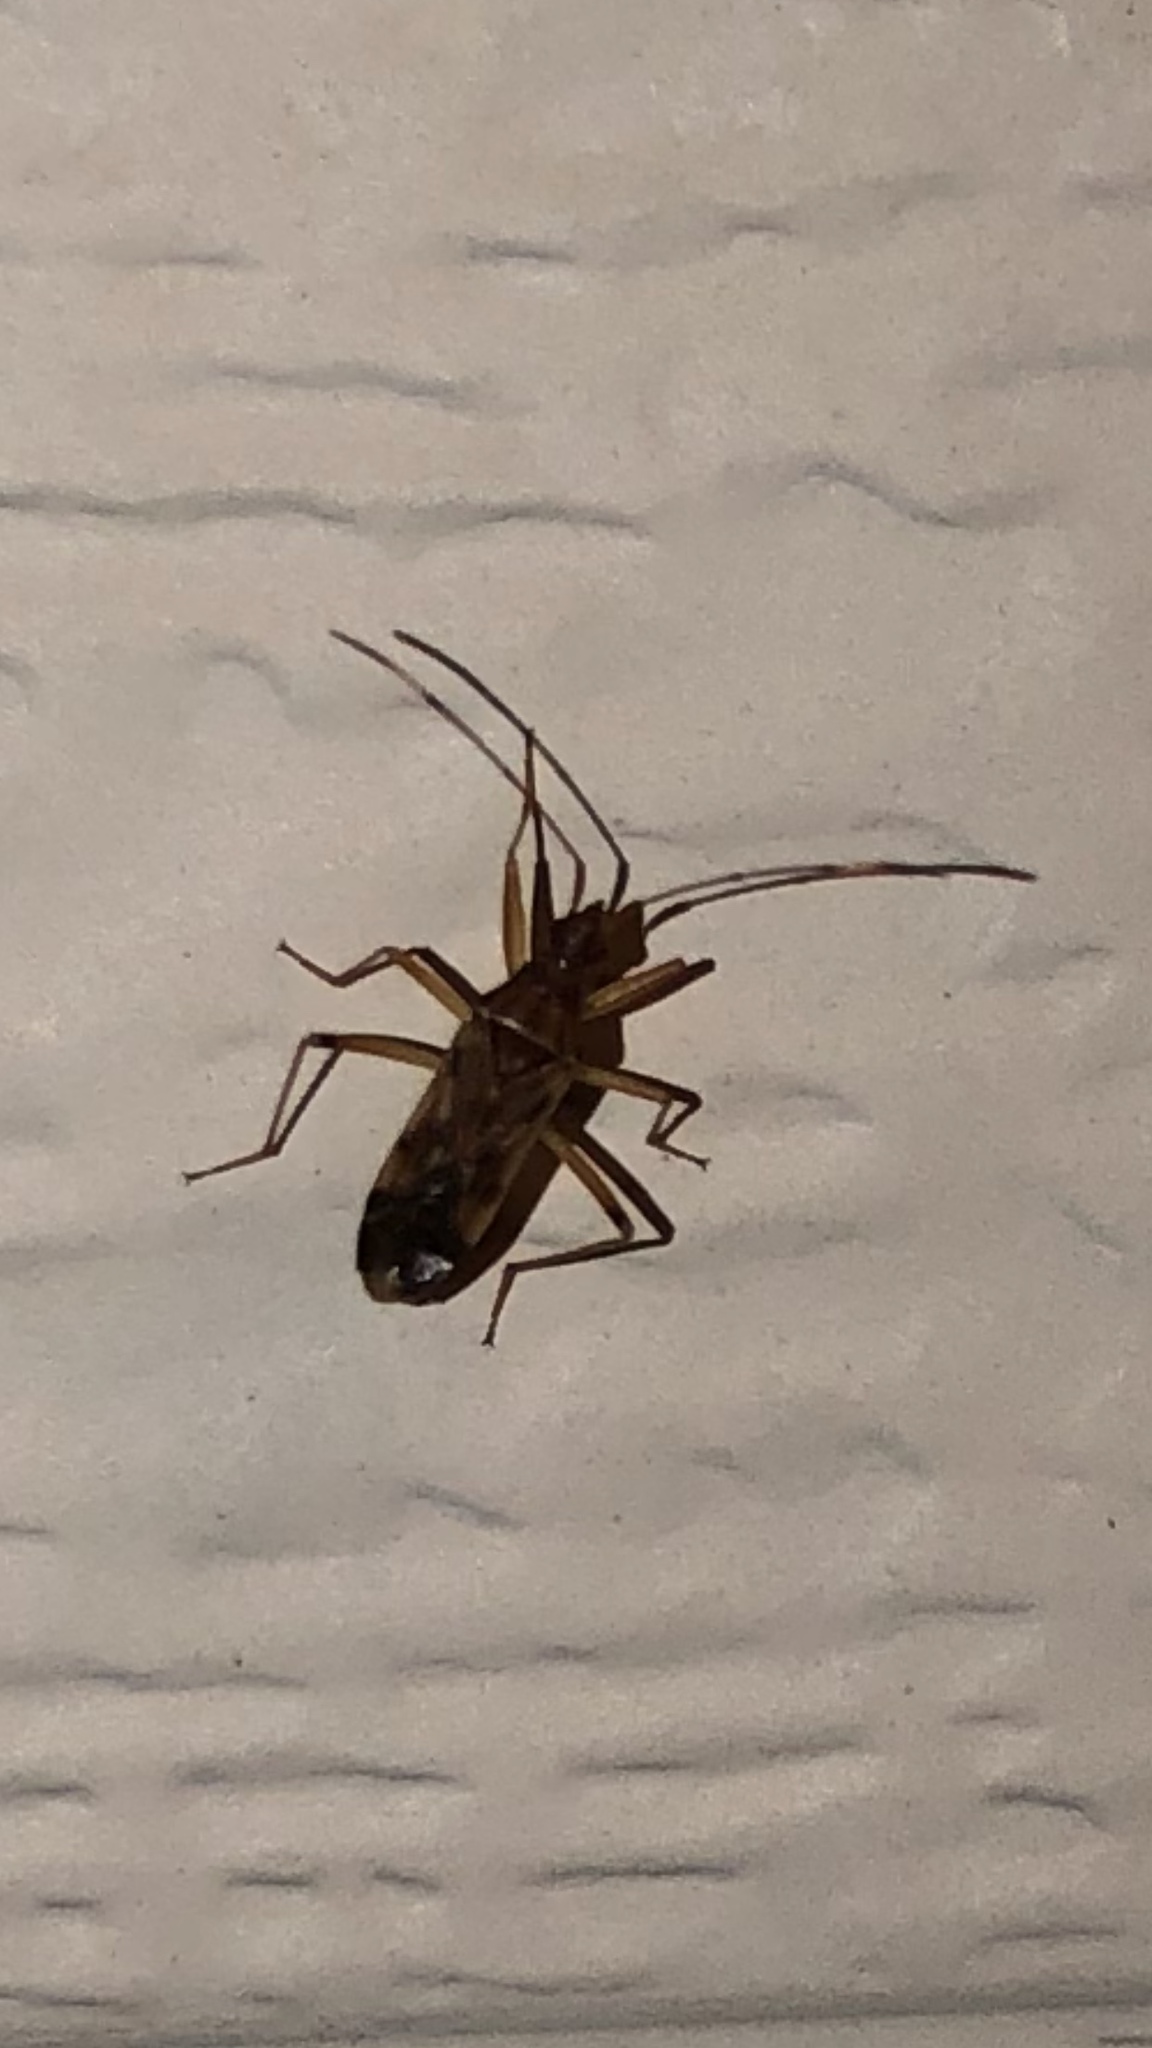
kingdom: Animalia
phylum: Arthropoda
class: Insecta
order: Hemiptera
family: Rhyparochromidae
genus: Ozophora
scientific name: Ozophora depicturata
